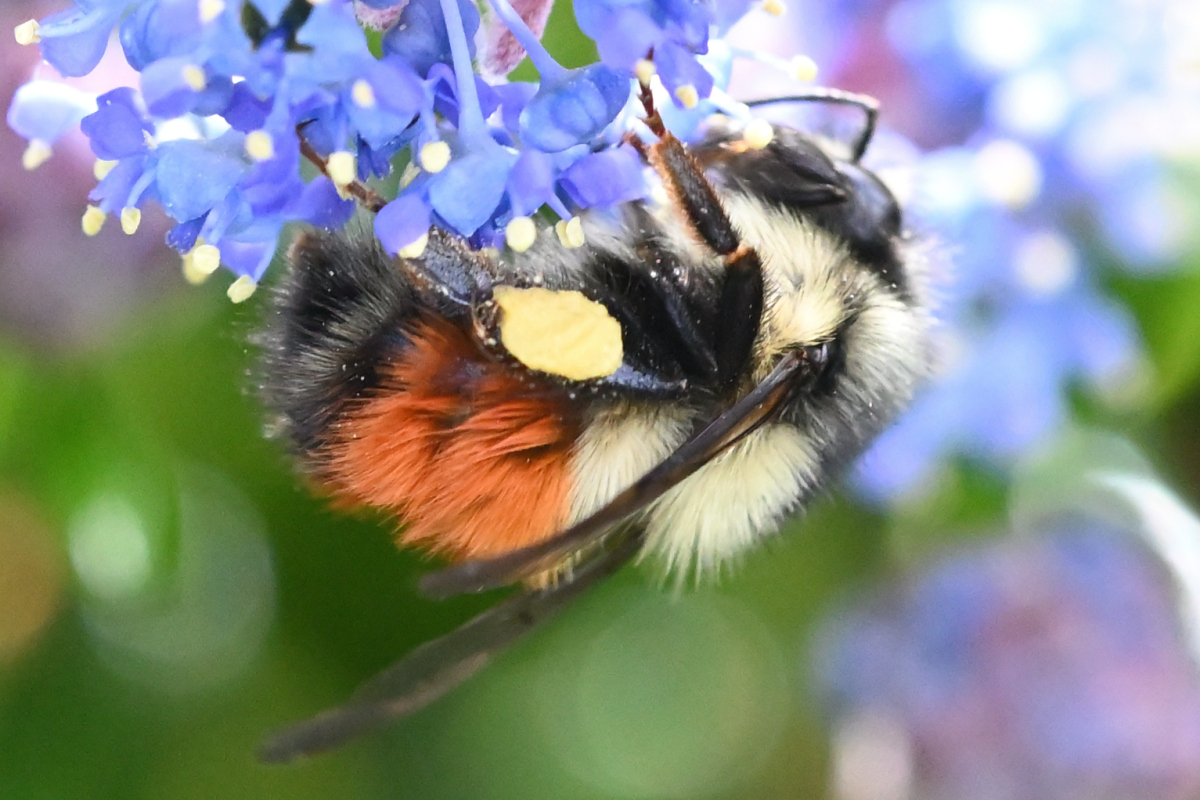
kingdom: Animalia
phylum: Arthropoda
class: Insecta
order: Hymenoptera
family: Apidae
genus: Bombus
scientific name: Bombus melanopygus
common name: Black tail bumble bee
